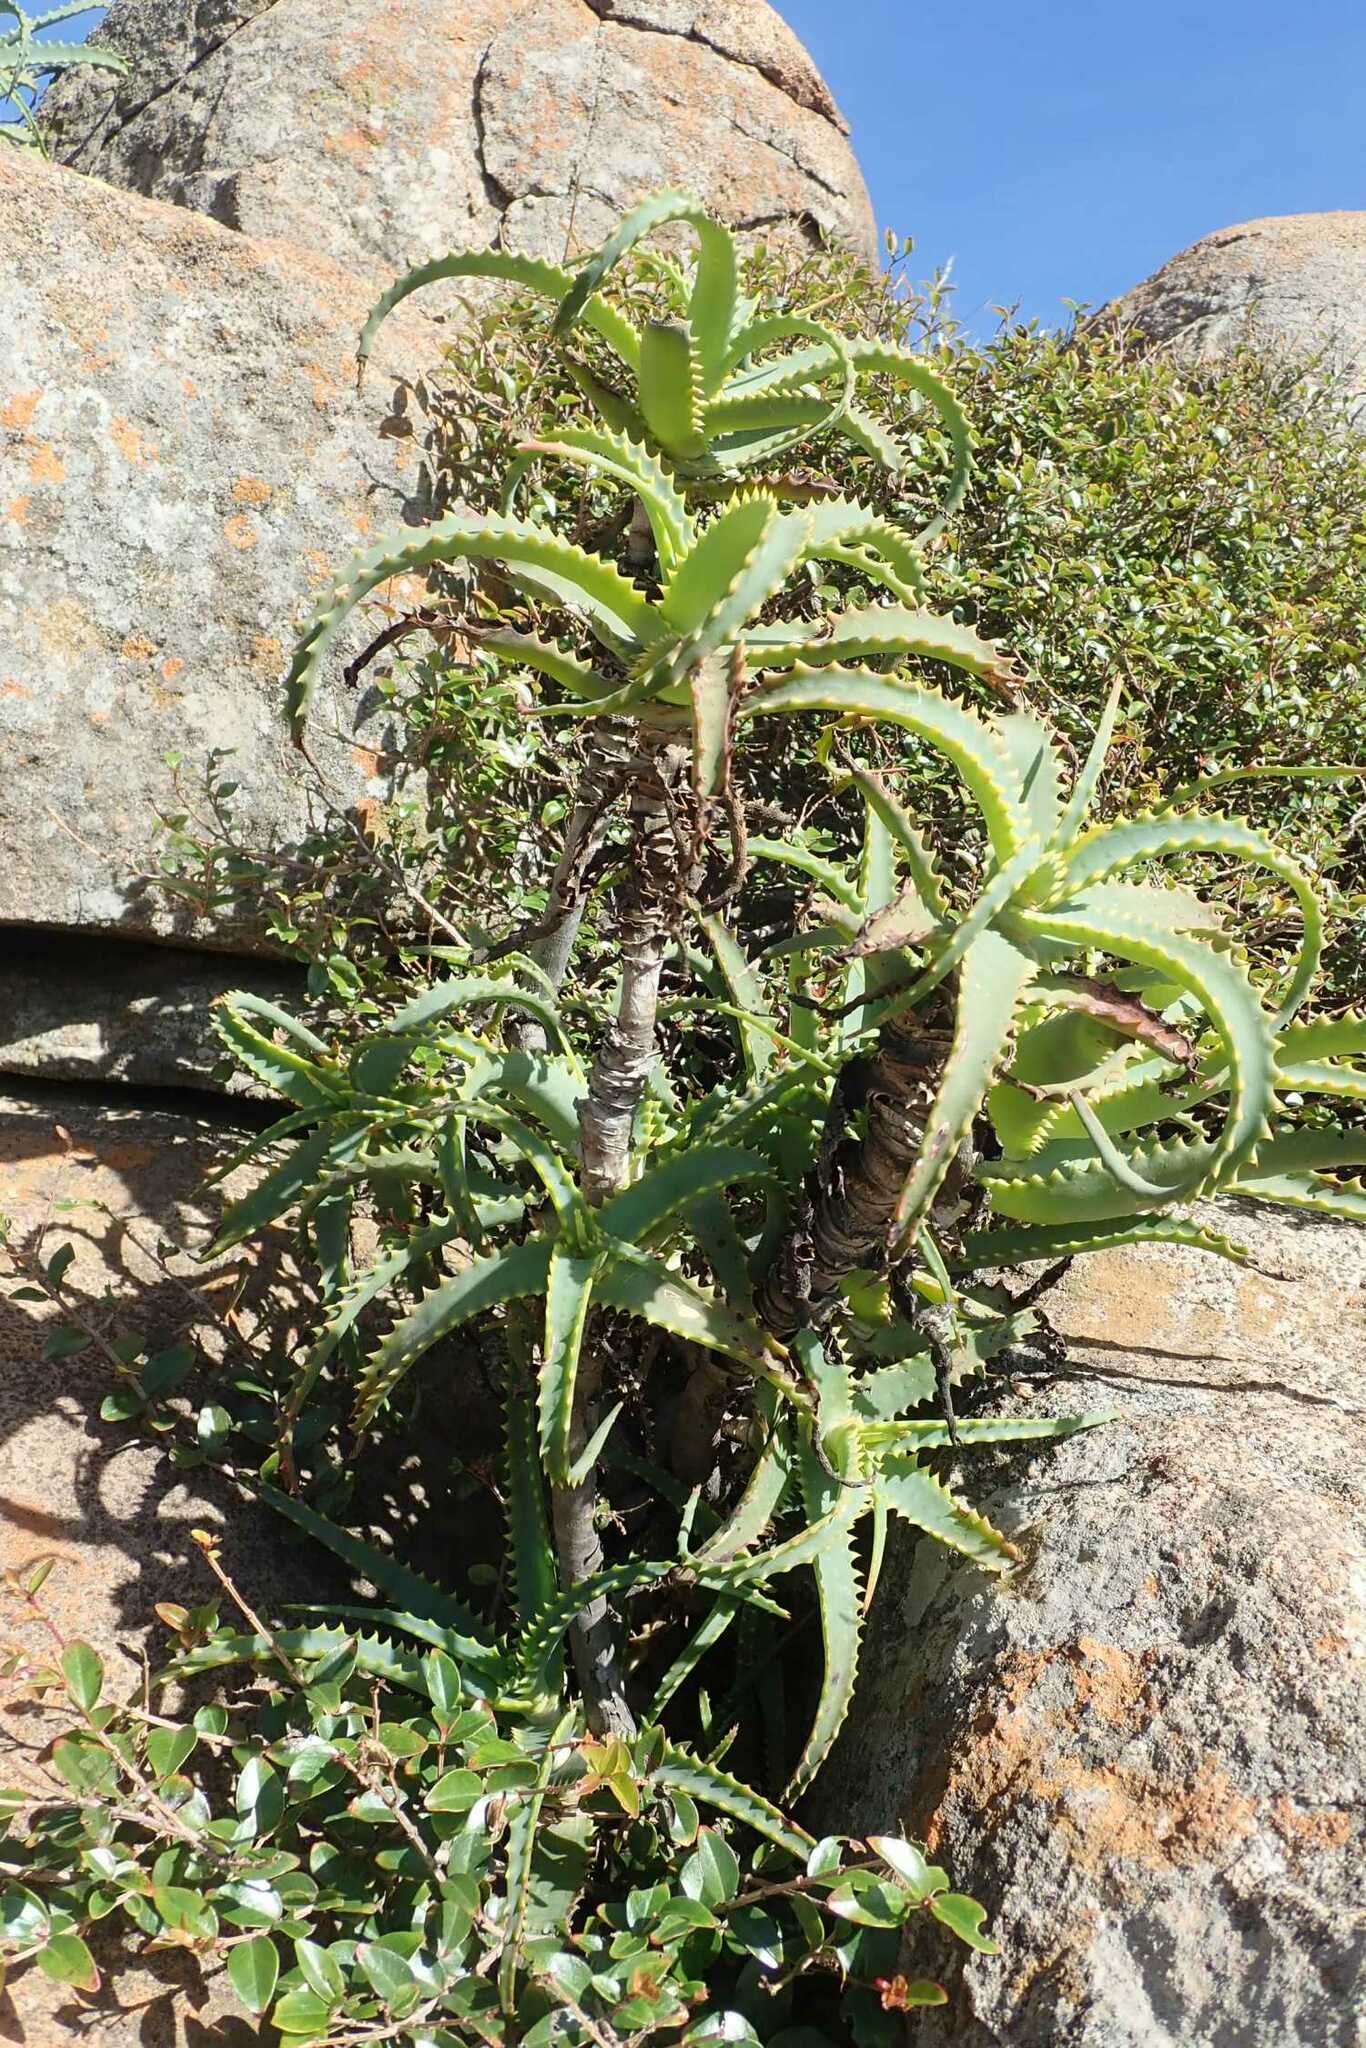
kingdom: Plantae
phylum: Tracheophyta
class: Liliopsida
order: Asparagales
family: Asphodelaceae
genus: Aloe
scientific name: Aloe arborescens
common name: Candelabra aloe
